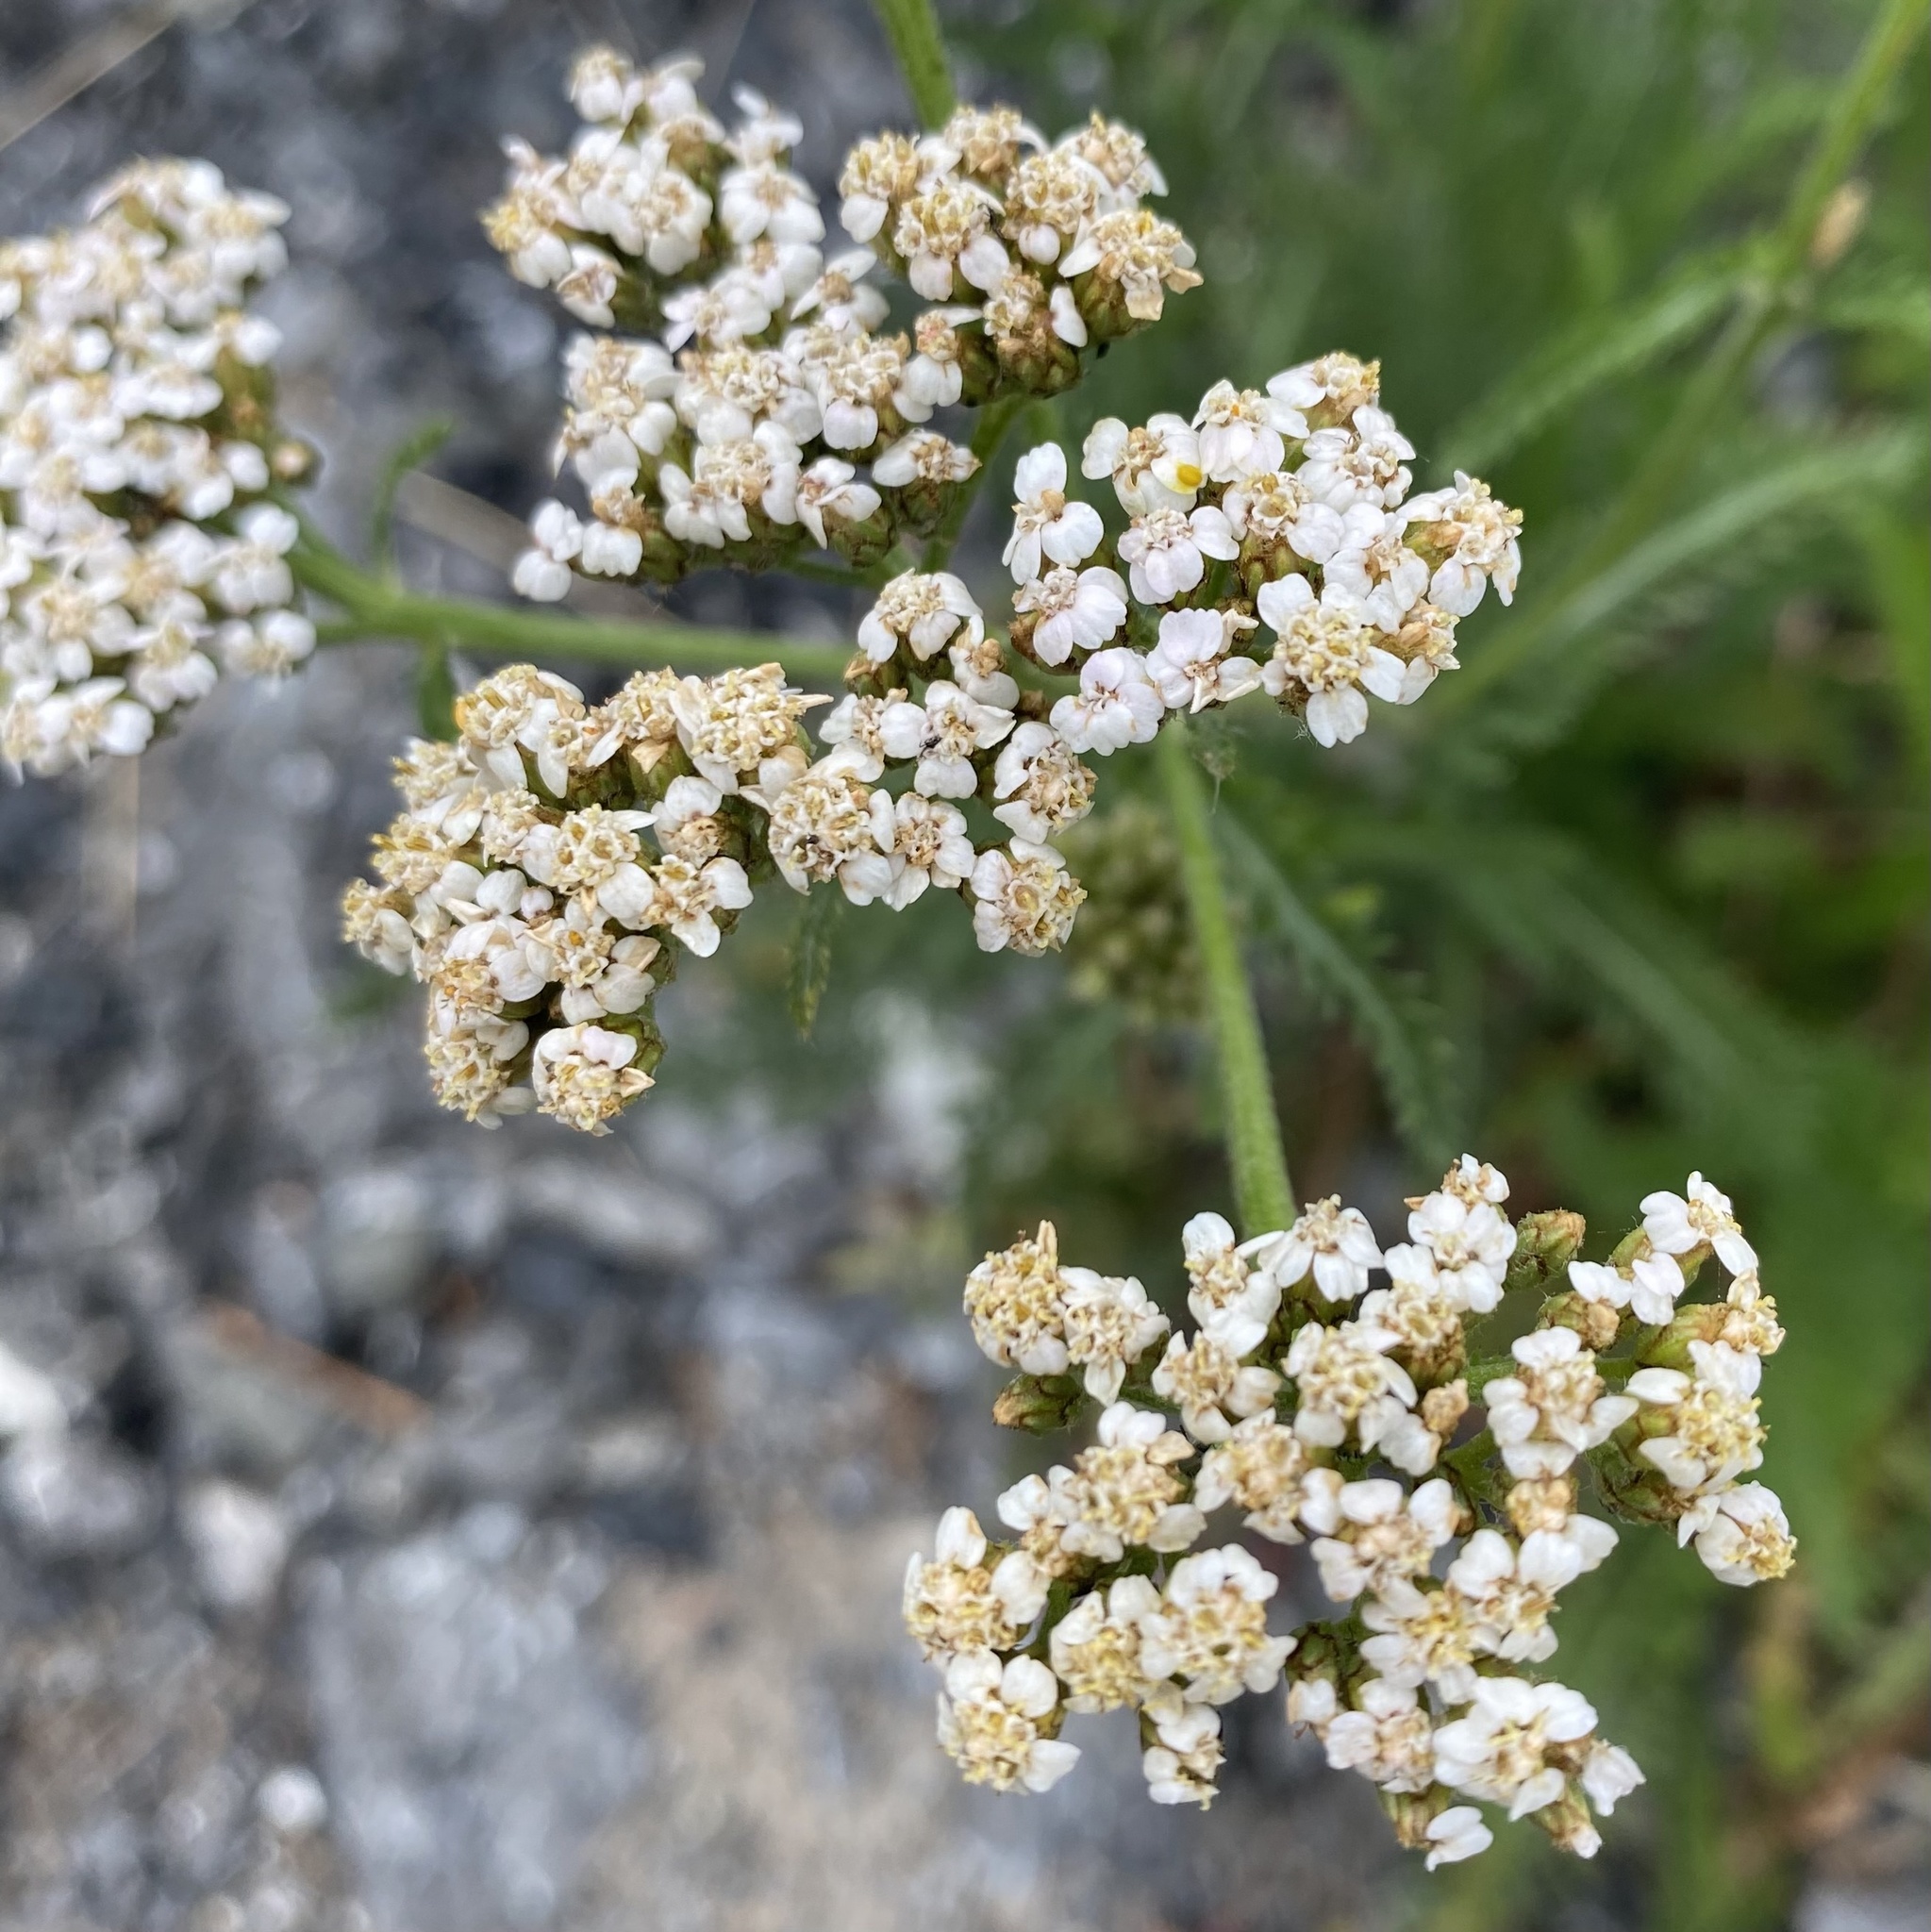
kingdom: Plantae
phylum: Tracheophyta
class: Magnoliopsida
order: Asterales
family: Asteraceae
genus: Achillea
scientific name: Achillea millefolium
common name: Yarrow
